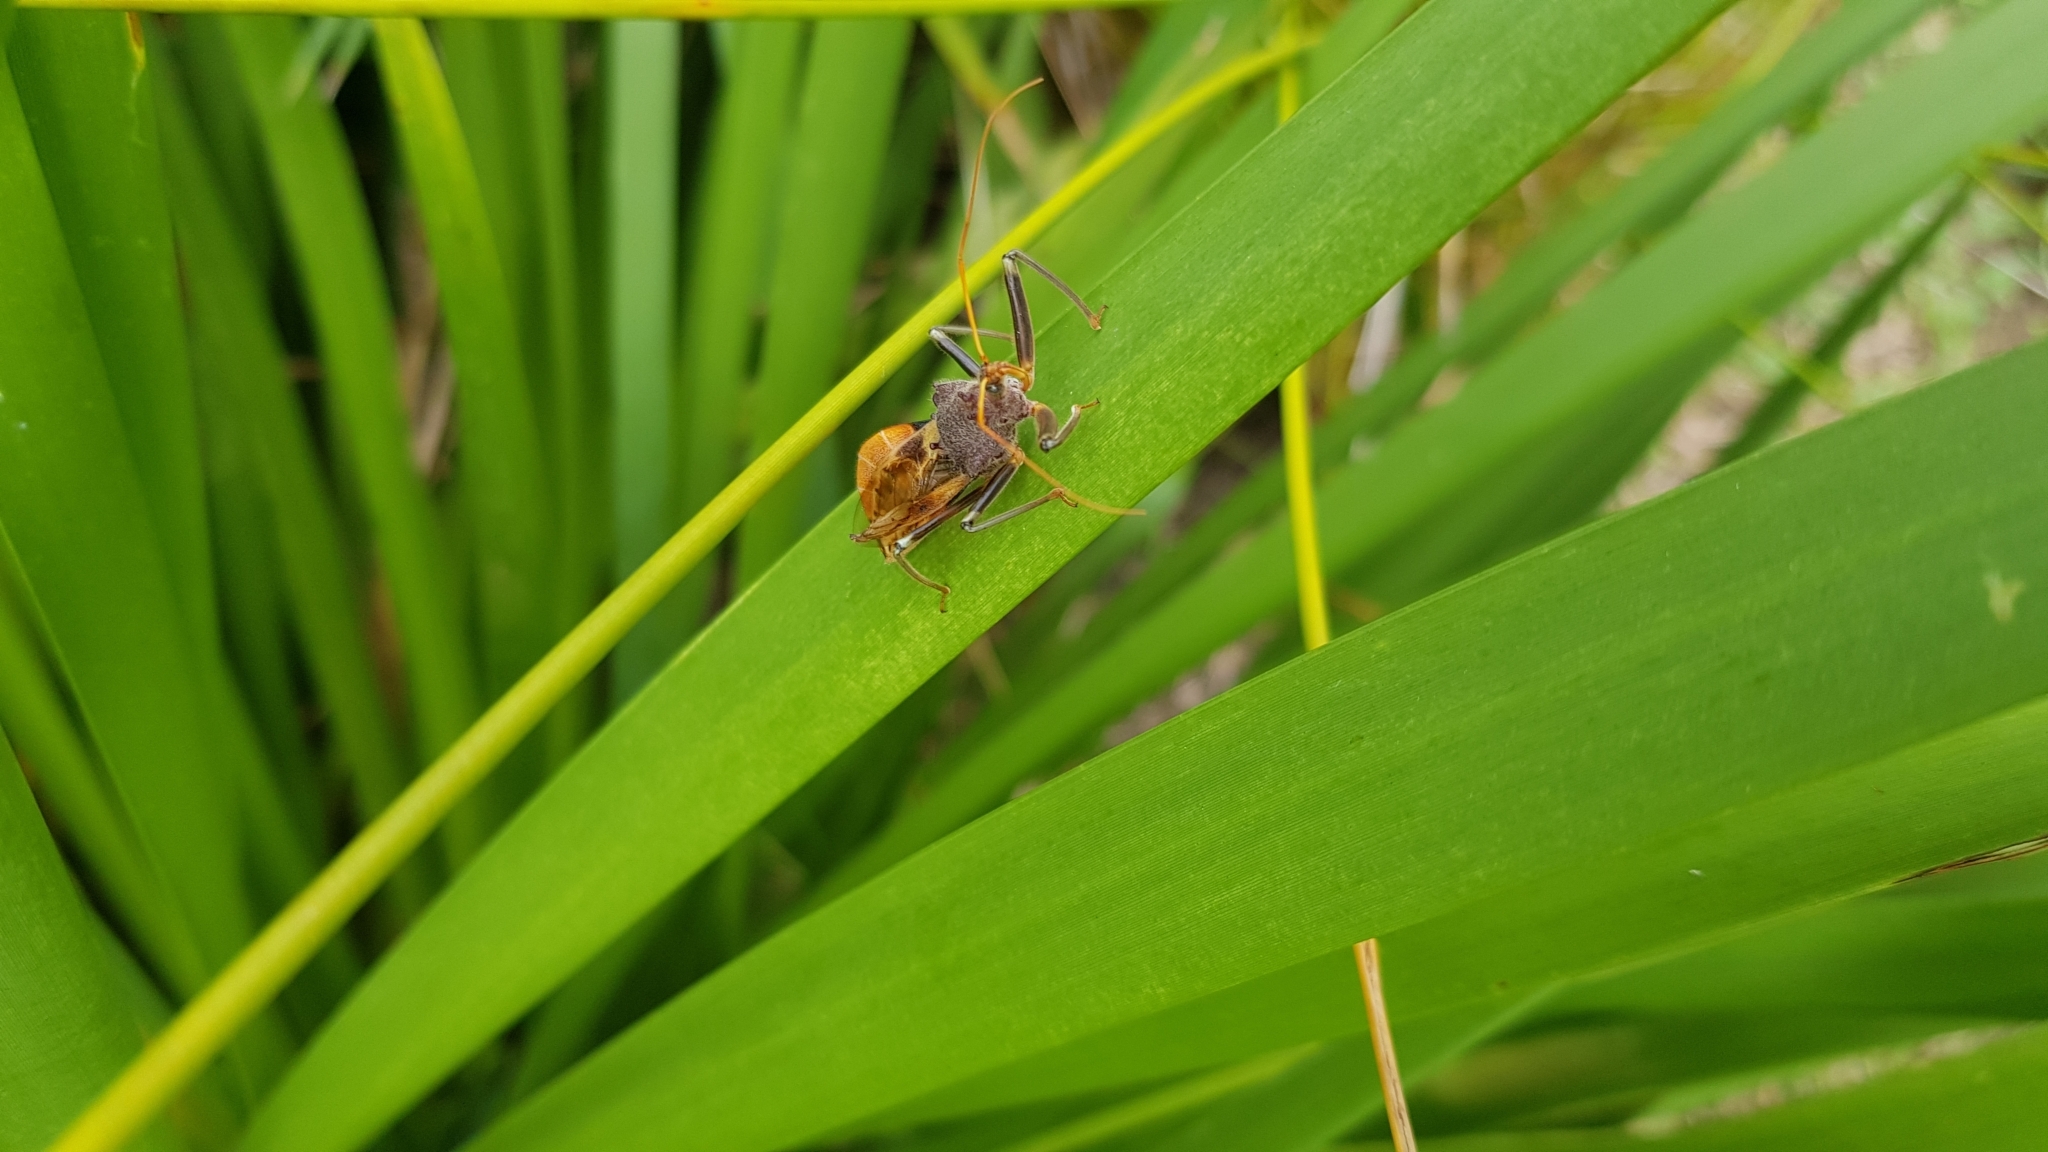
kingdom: Animalia
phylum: Arthropoda
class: Insecta
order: Hemiptera
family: Reduviidae
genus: Pristhesancus
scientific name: Pristhesancus plagipennis
